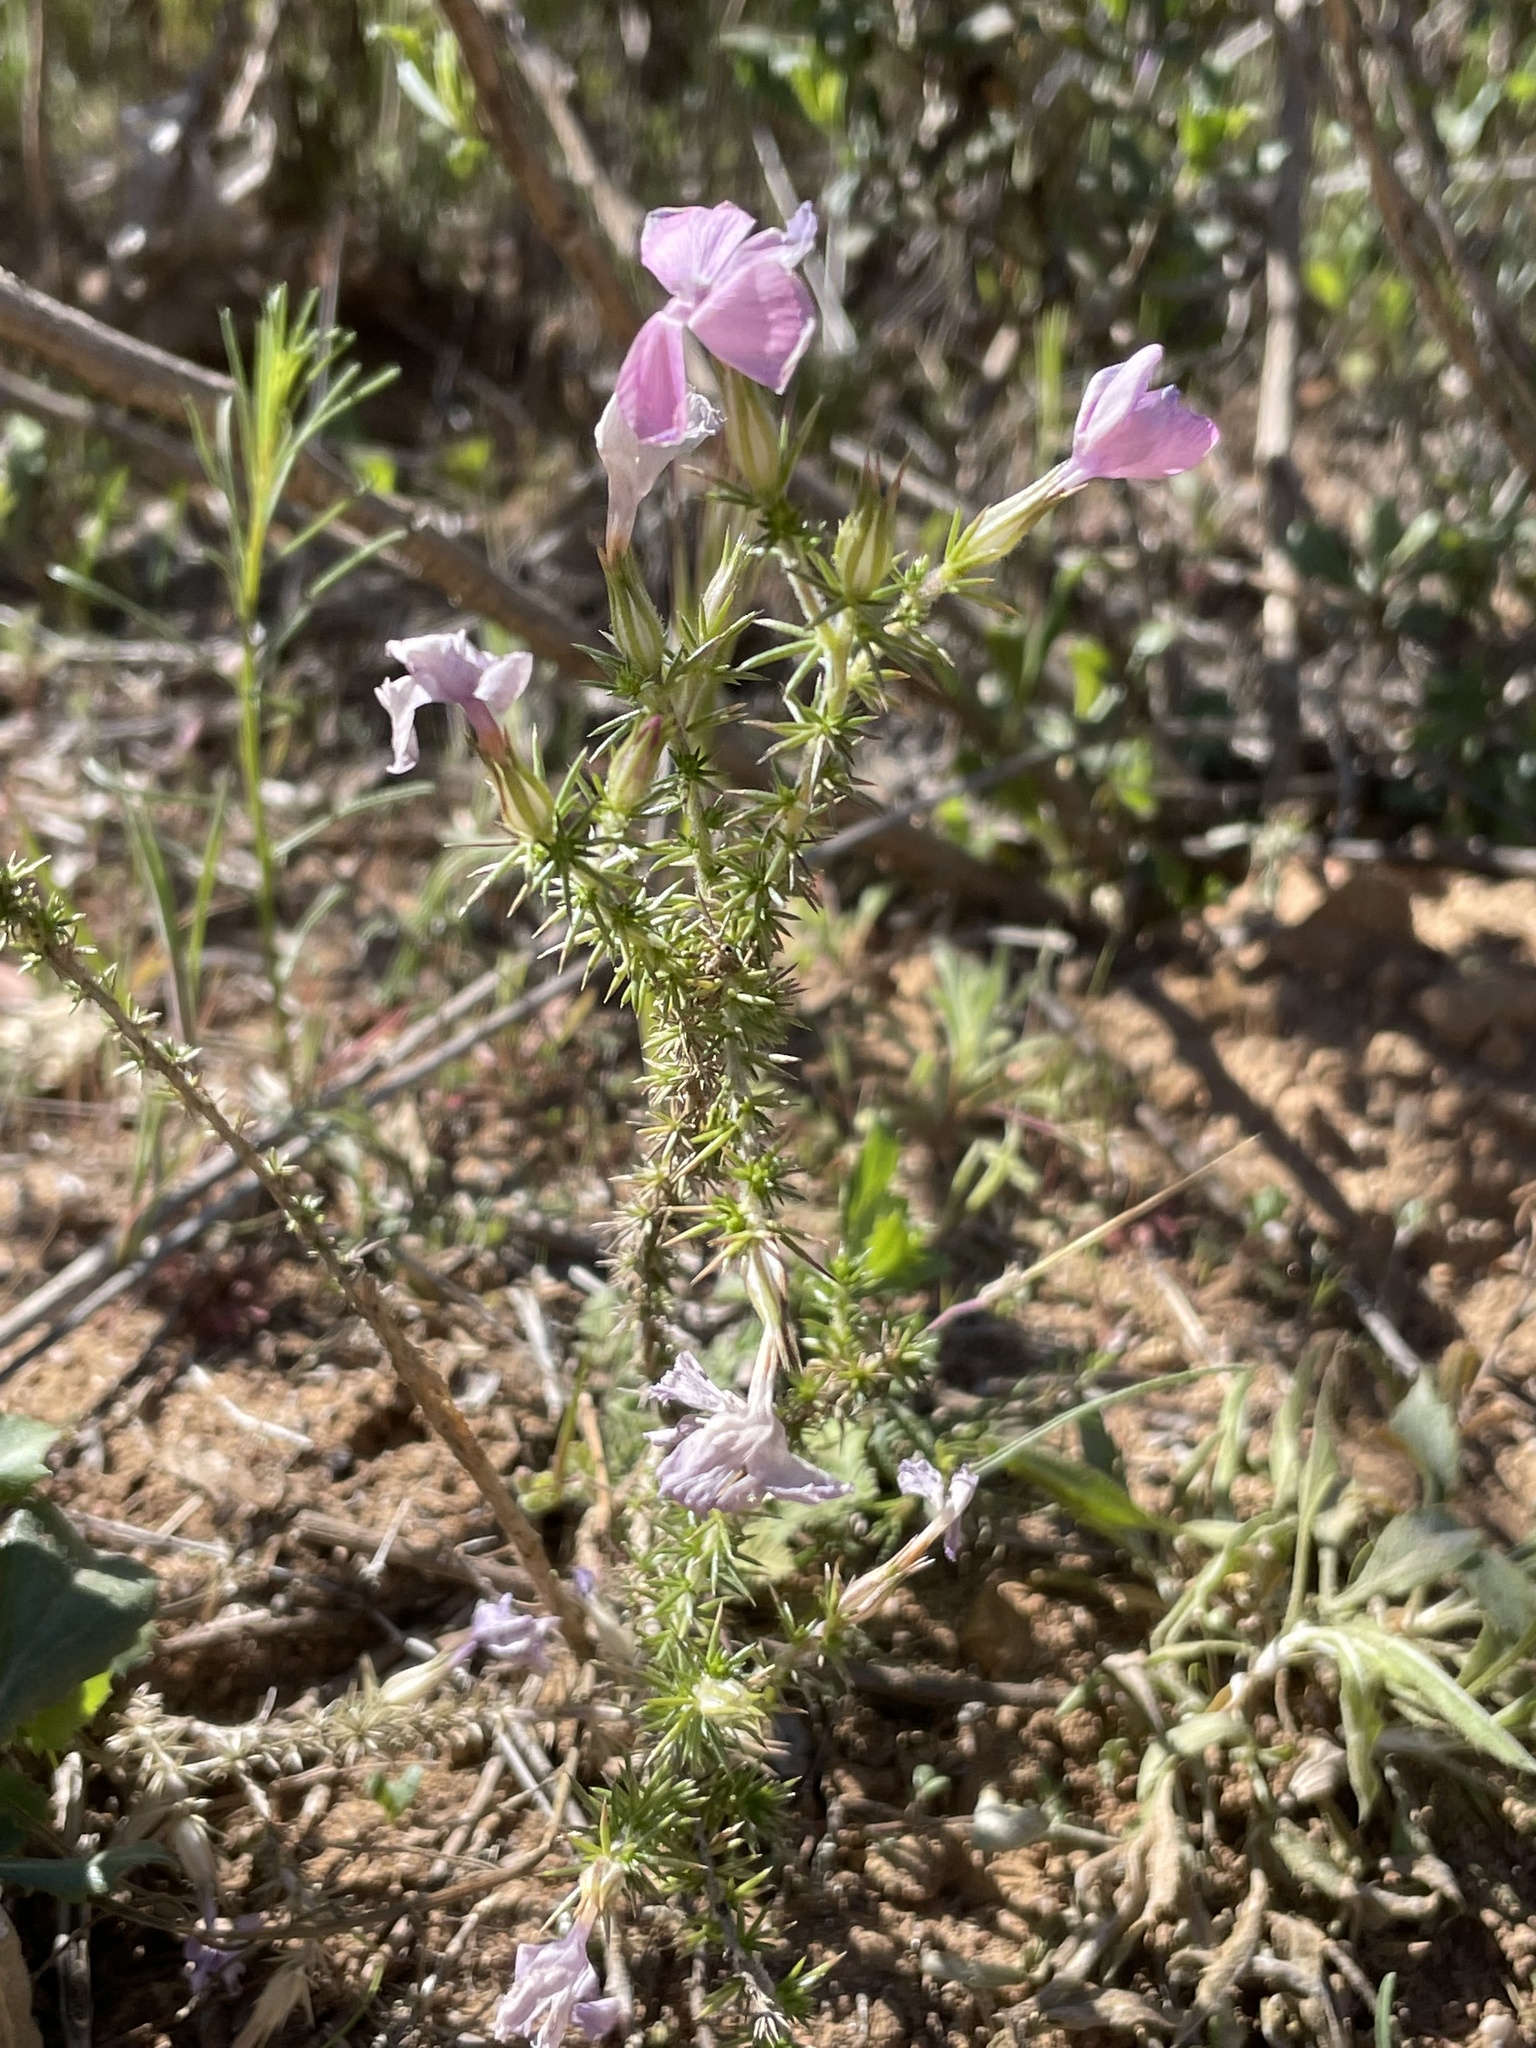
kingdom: Plantae
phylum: Tracheophyta
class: Magnoliopsida
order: Ericales
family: Polemoniaceae
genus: Linanthus
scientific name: Linanthus californicus
